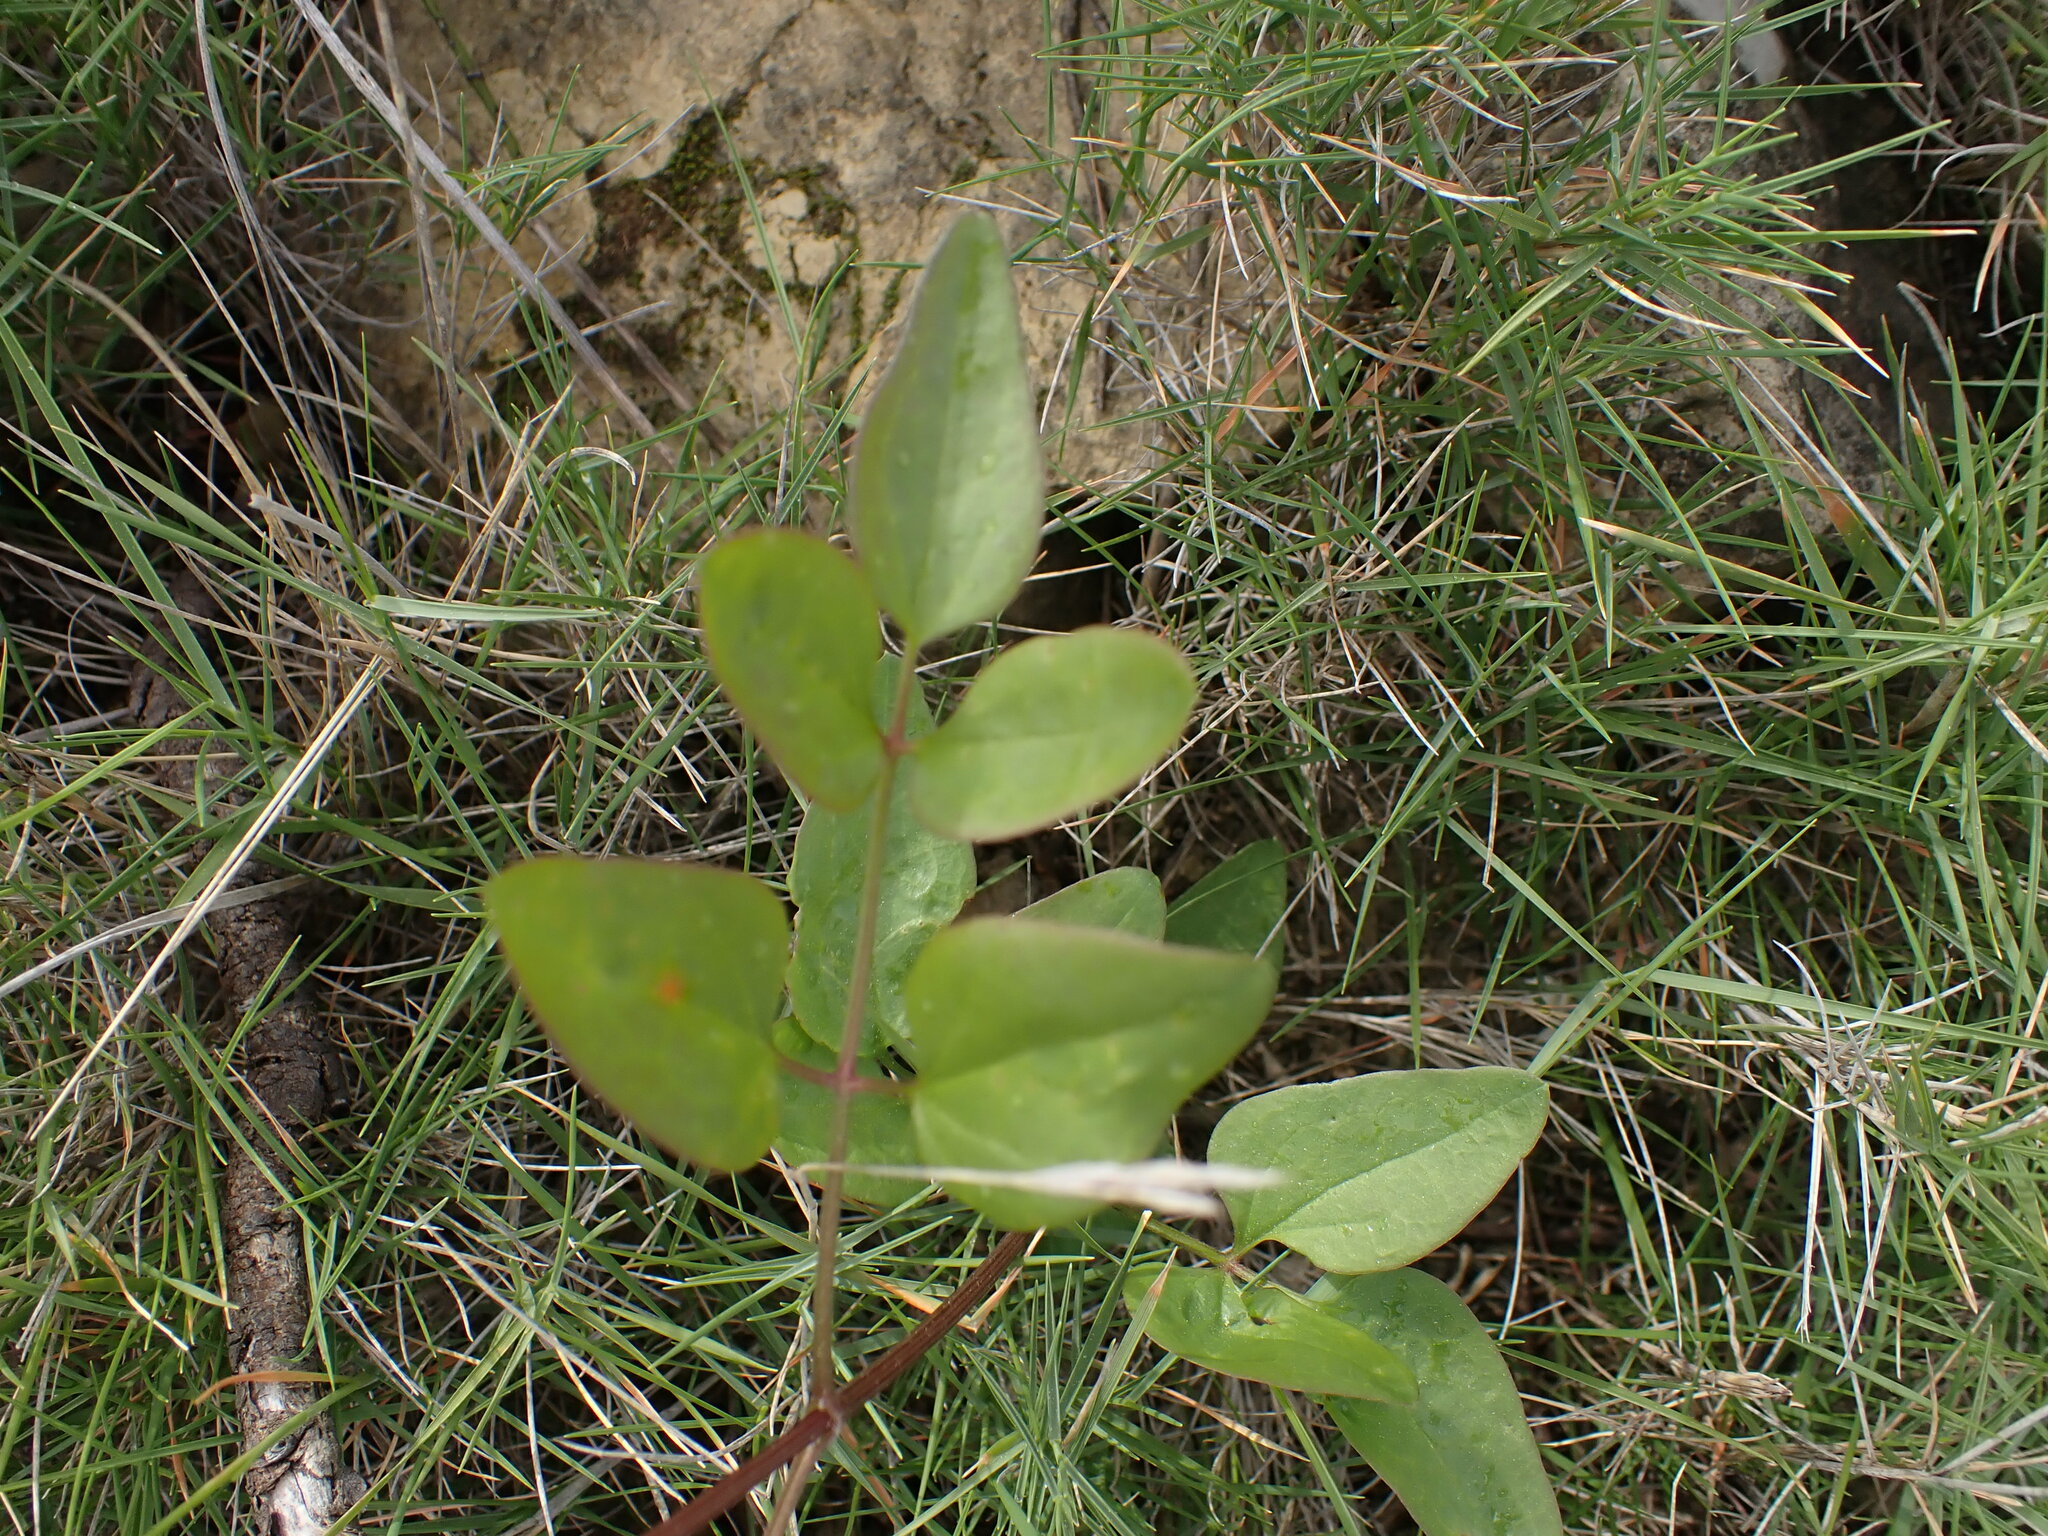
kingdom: Plantae
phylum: Tracheophyta
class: Magnoliopsida
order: Ranunculales
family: Ranunculaceae
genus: Clematis
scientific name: Clematis flammula
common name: Virgin's-bower
